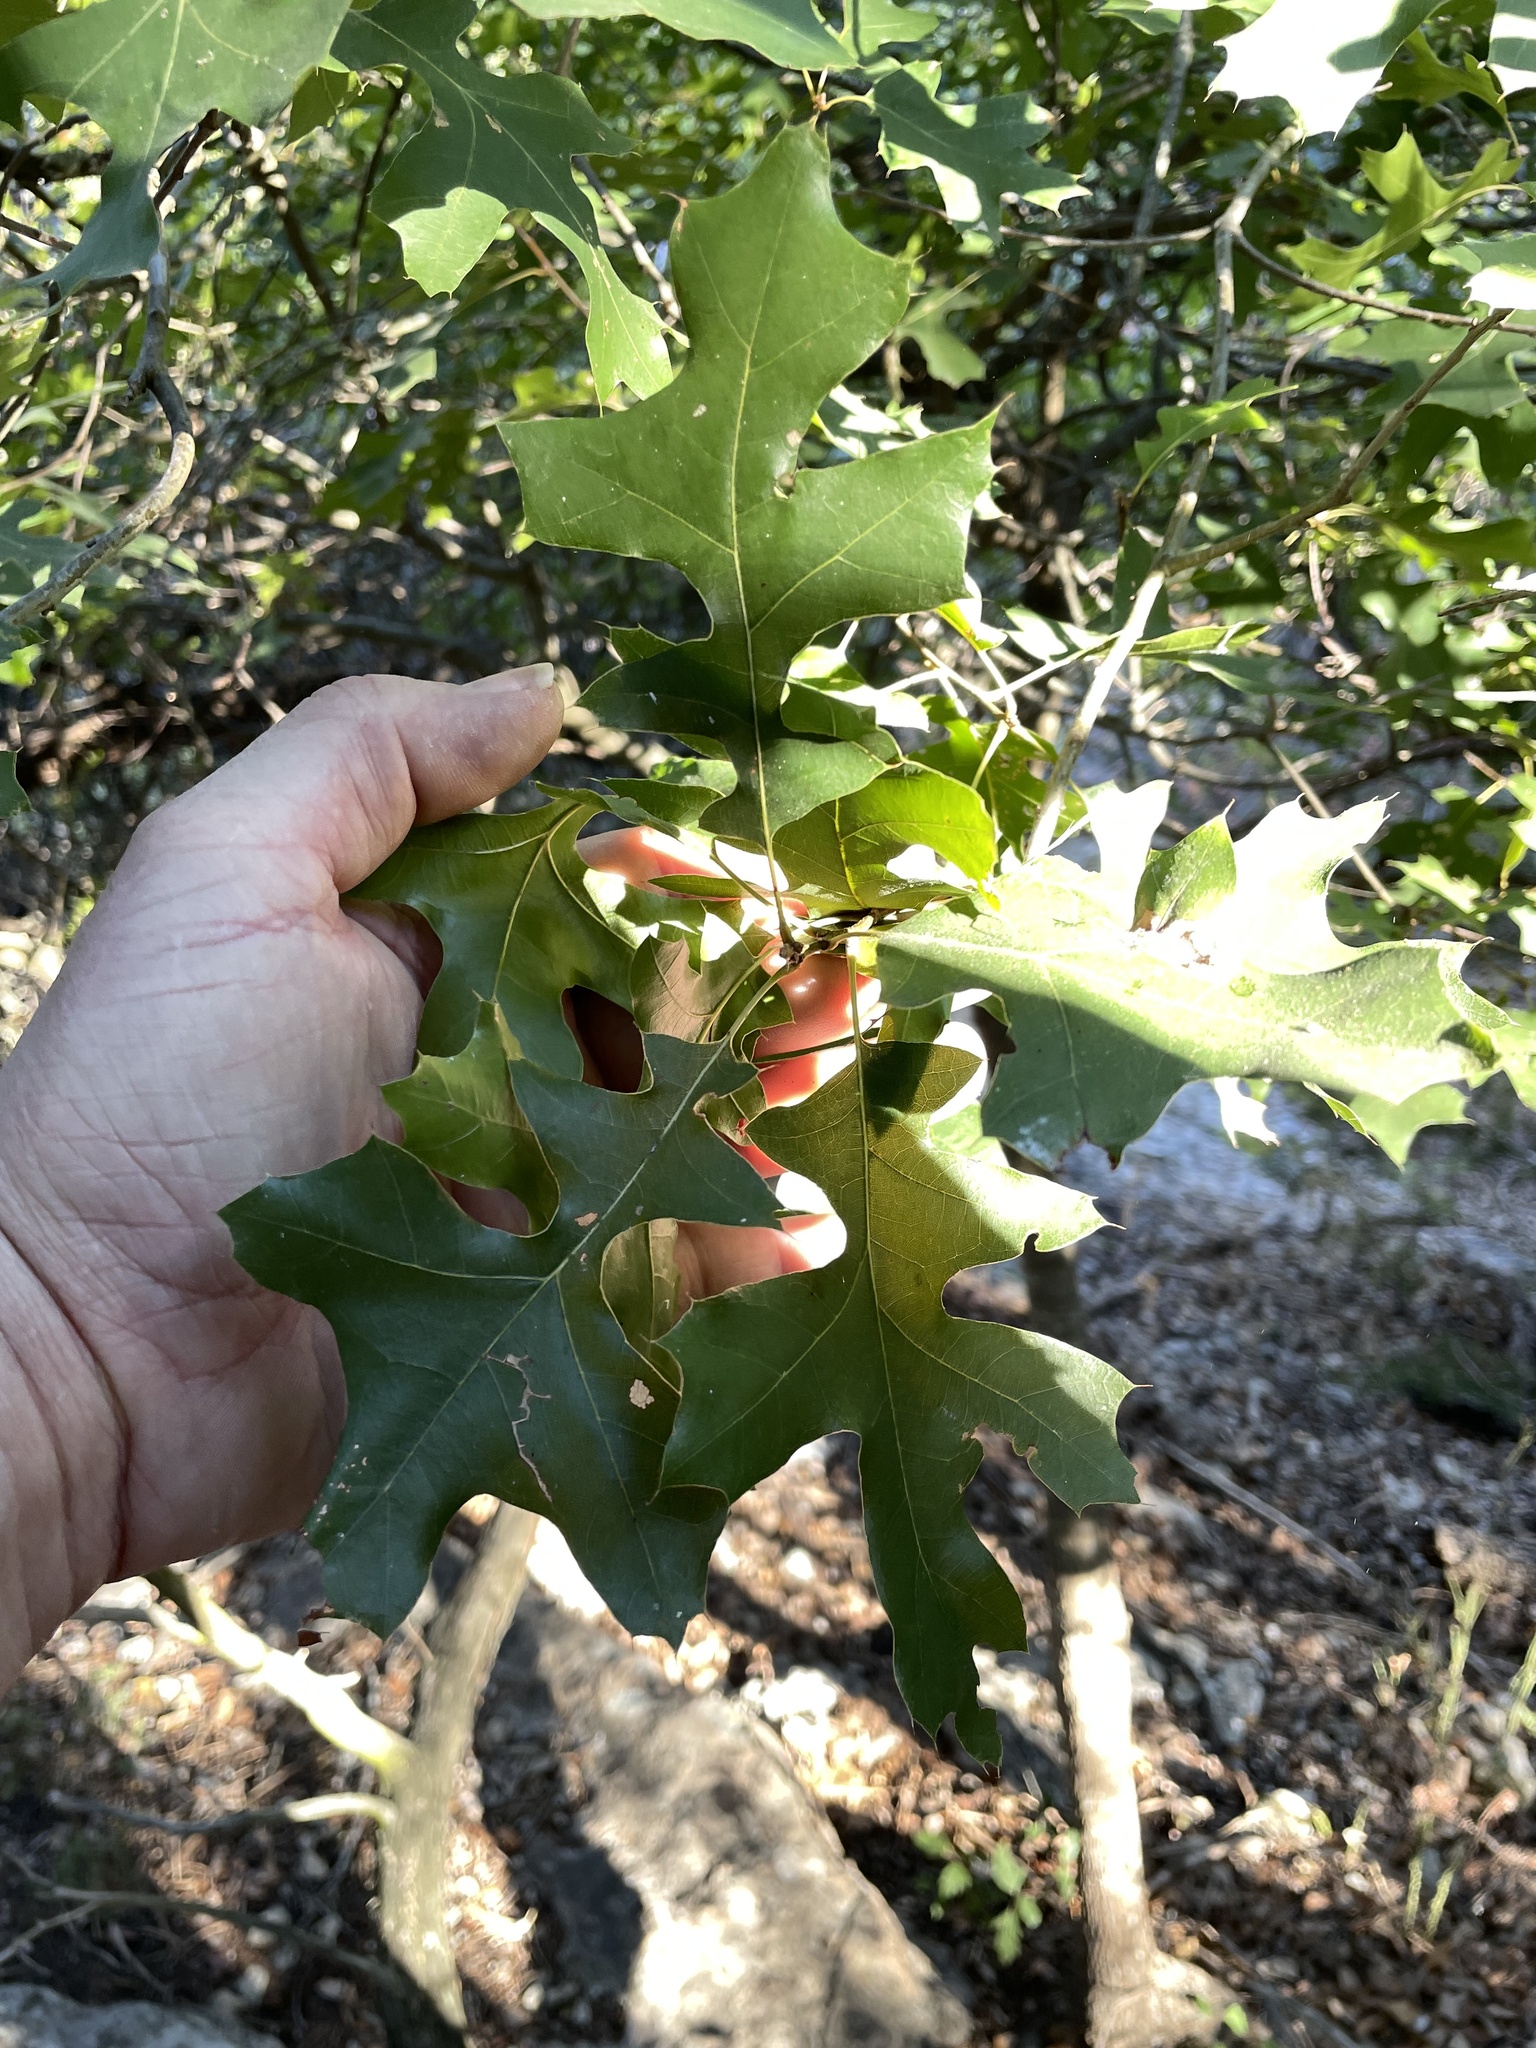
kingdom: Plantae
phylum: Tracheophyta
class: Magnoliopsida
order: Fagales
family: Fagaceae
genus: Quercus
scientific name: Quercus buckleyi
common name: Buckley oak
